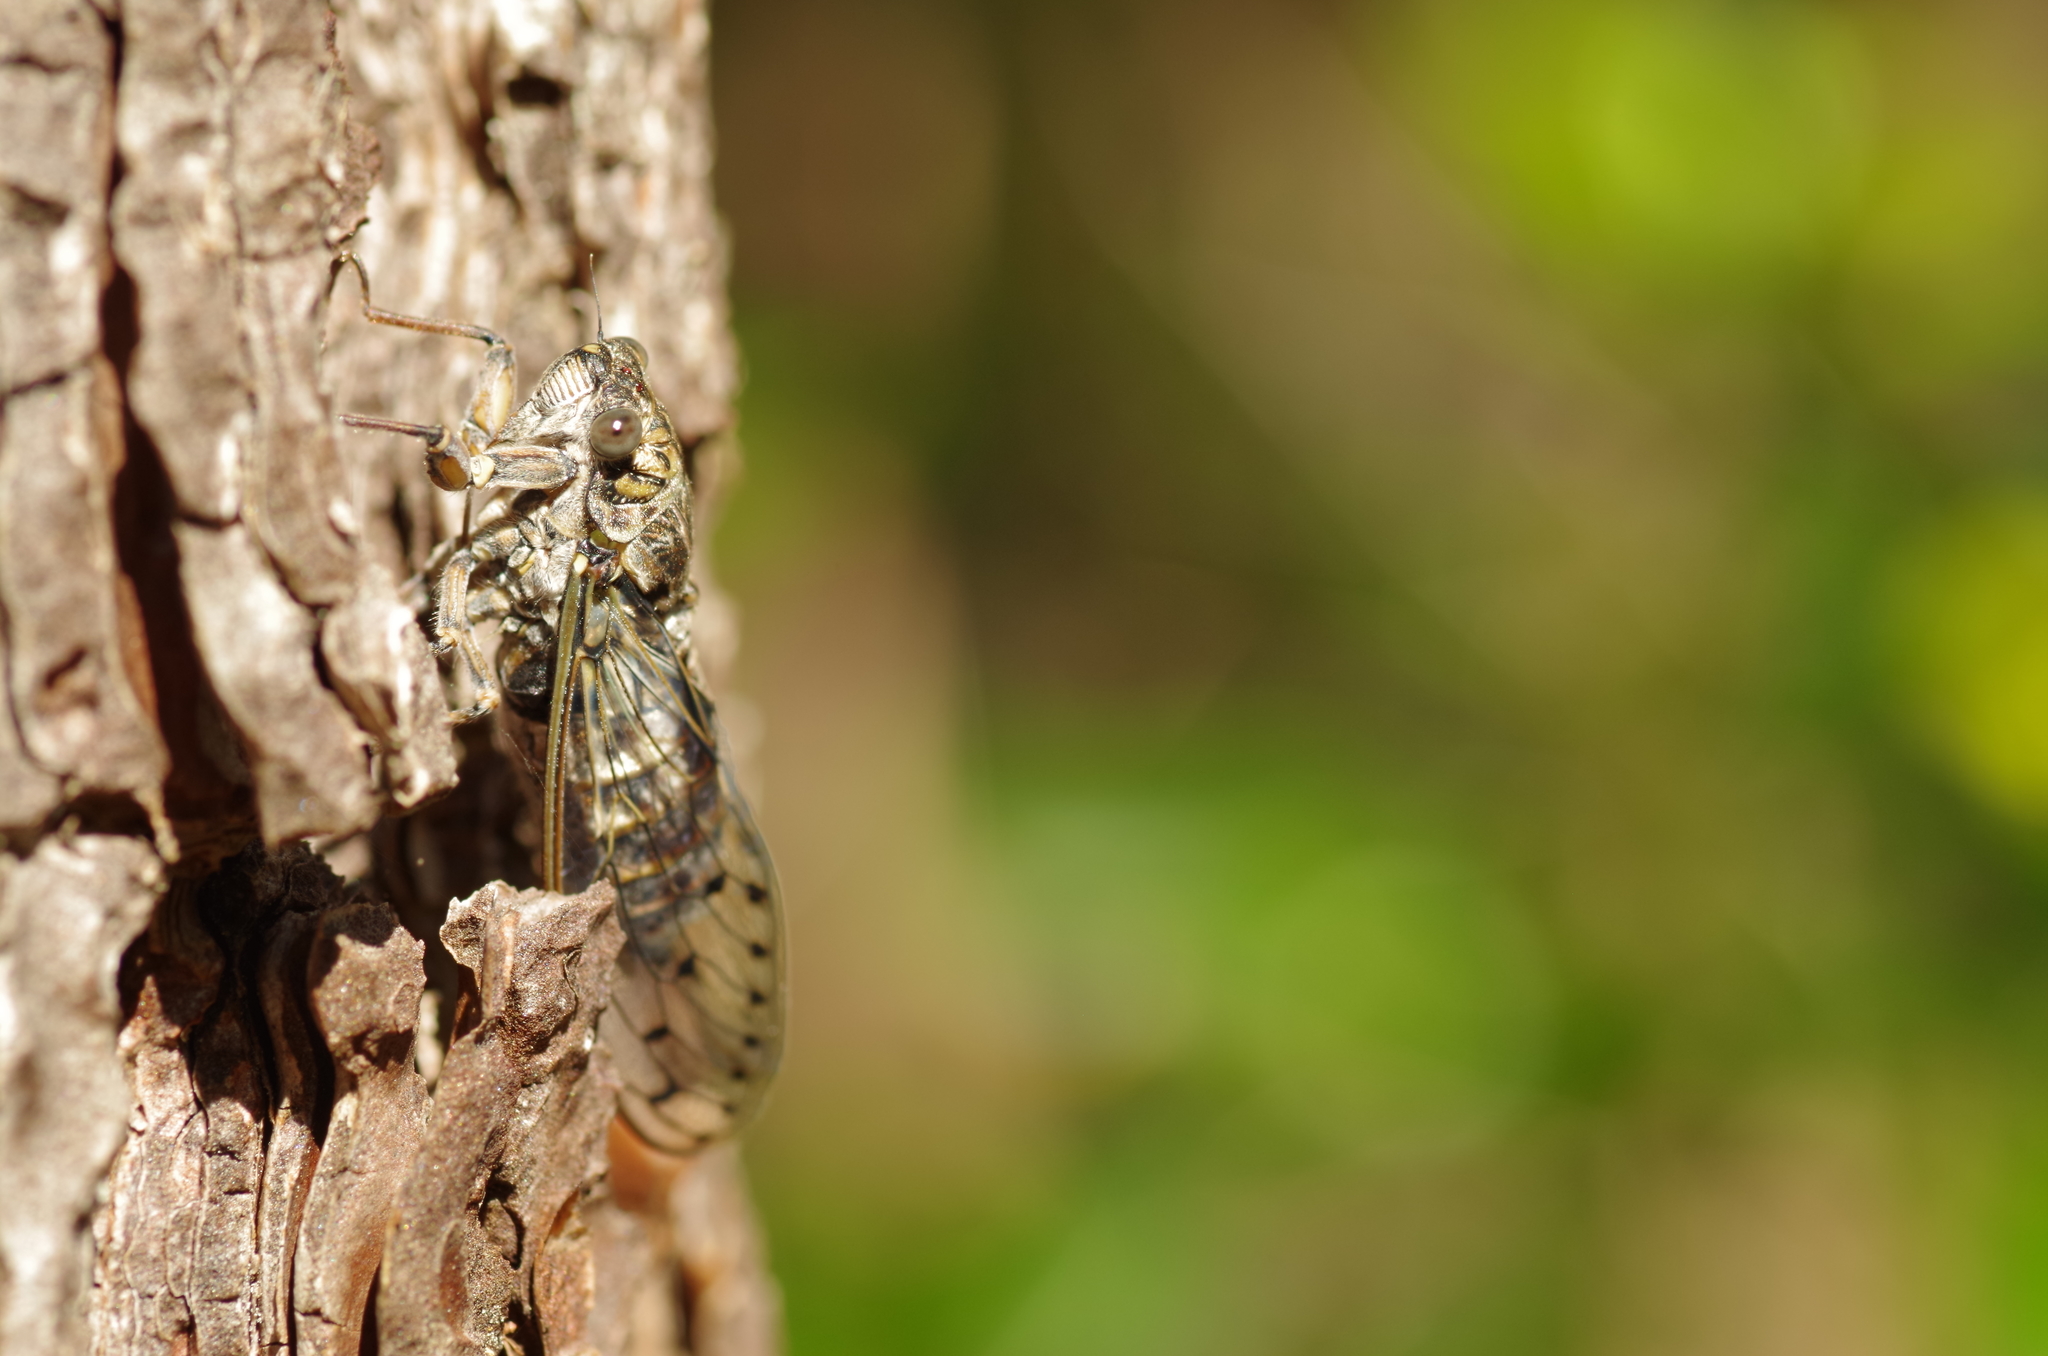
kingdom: Animalia
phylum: Arthropoda
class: Insecta
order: Hemiptera
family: Cicadidae
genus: Cicada
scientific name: Cicada orni
